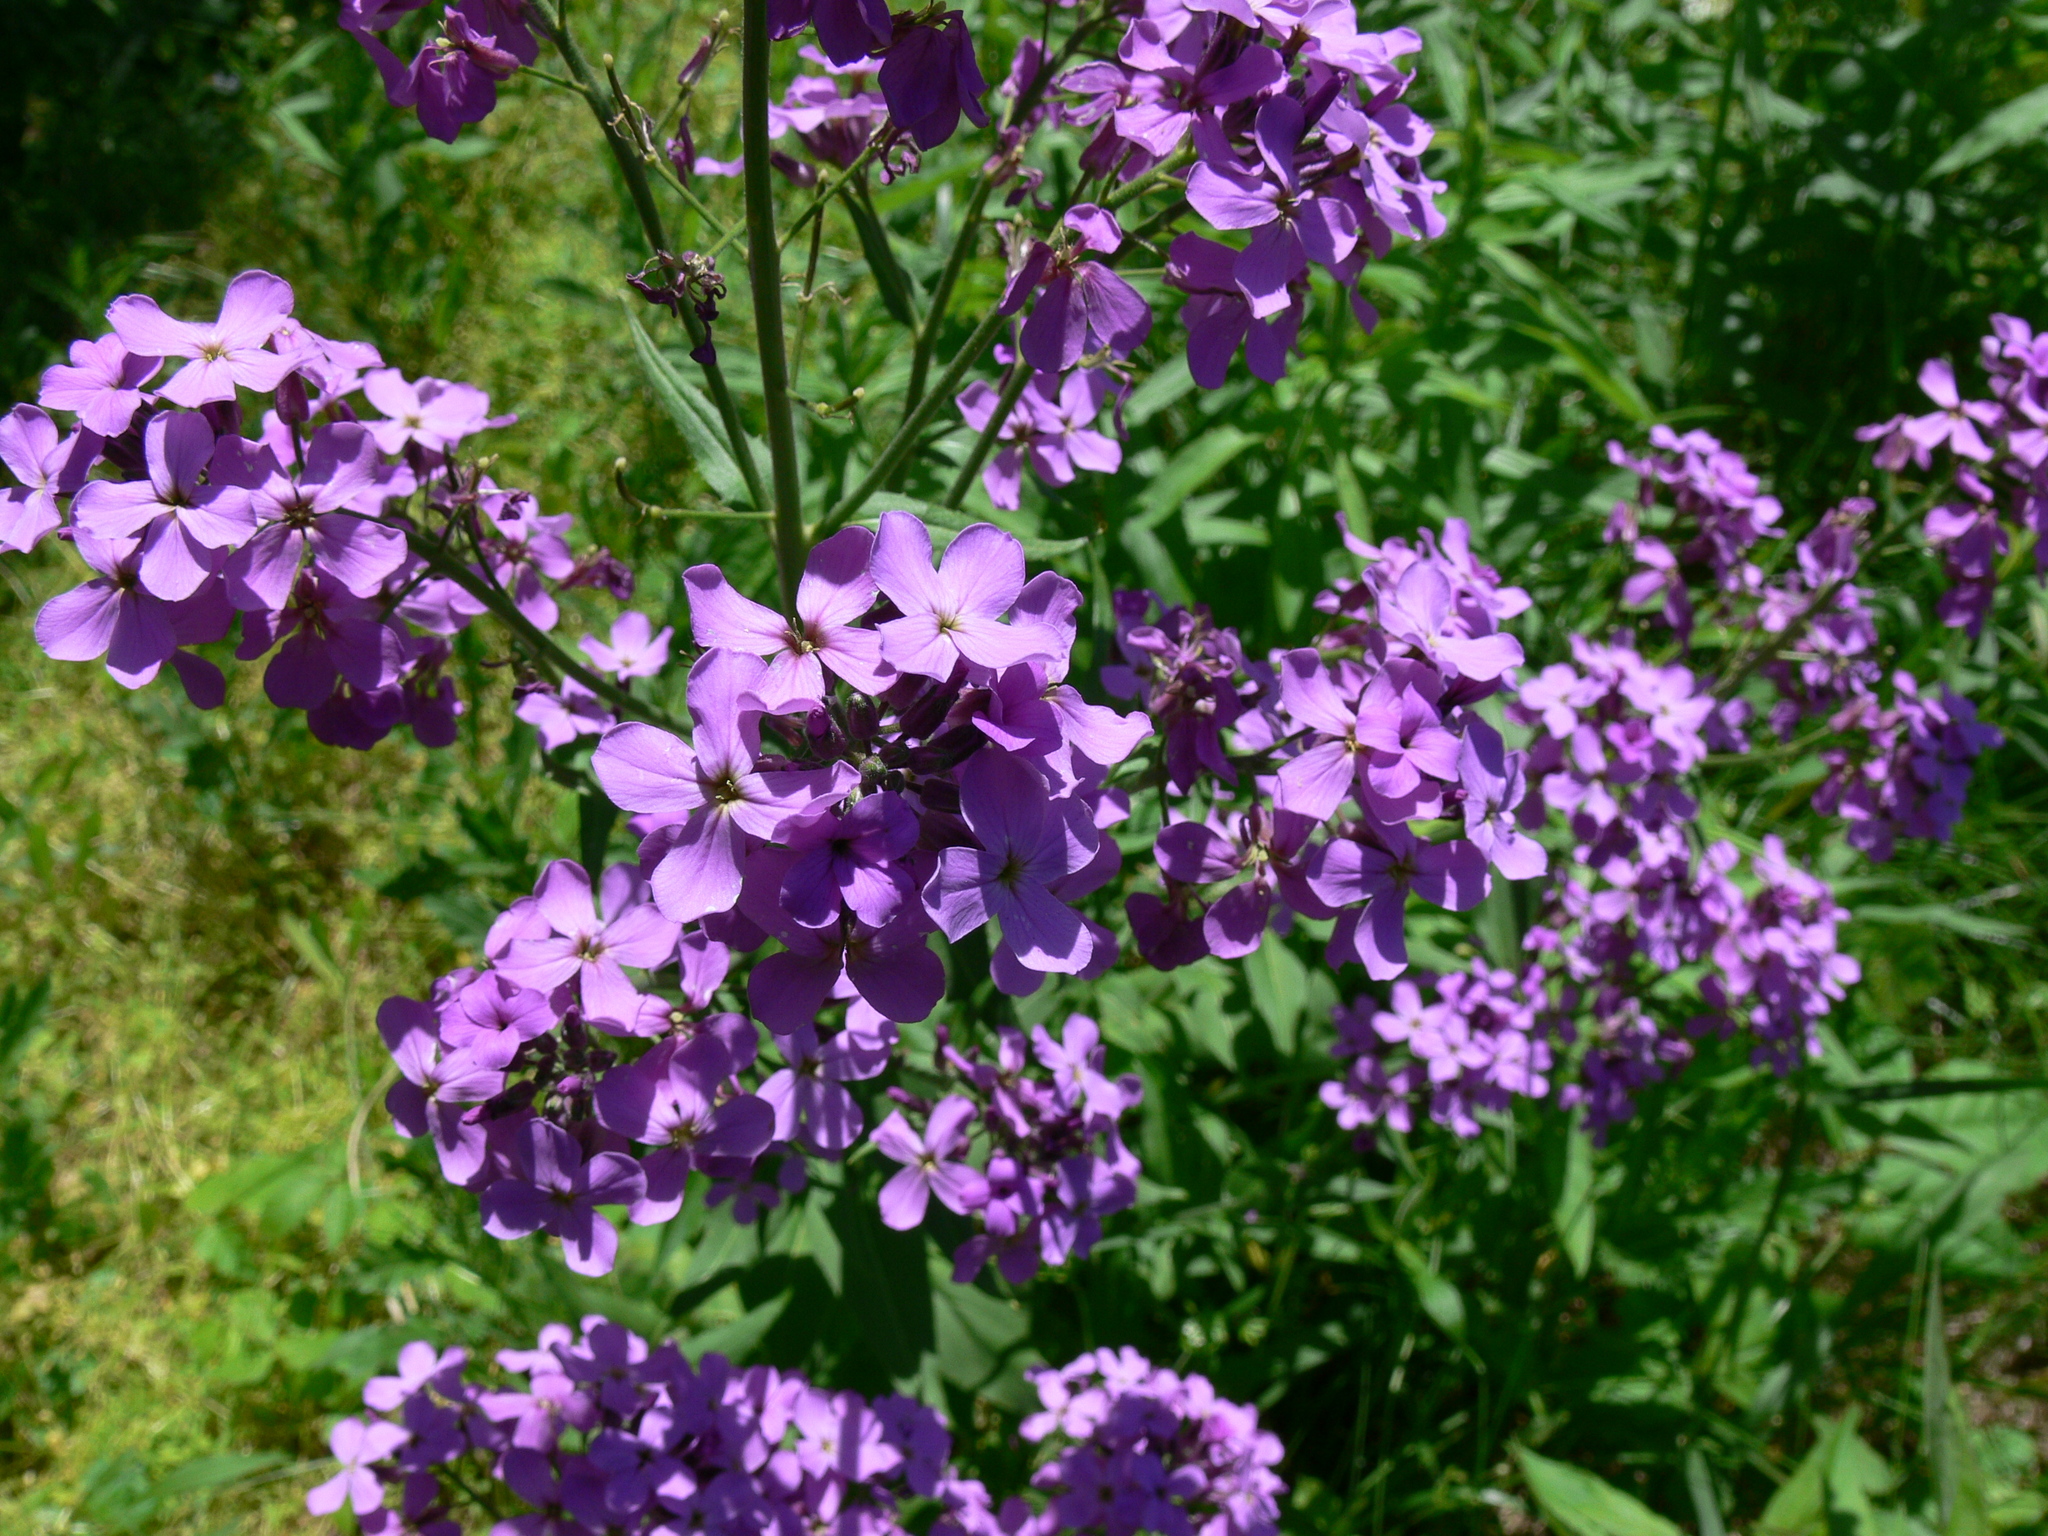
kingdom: Plantae
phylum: Tracheophyta
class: Magnoliopsida
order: Brassicales
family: Brassicaceae
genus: Hesperis
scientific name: Hesperis matronalis
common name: Dame's-violet
